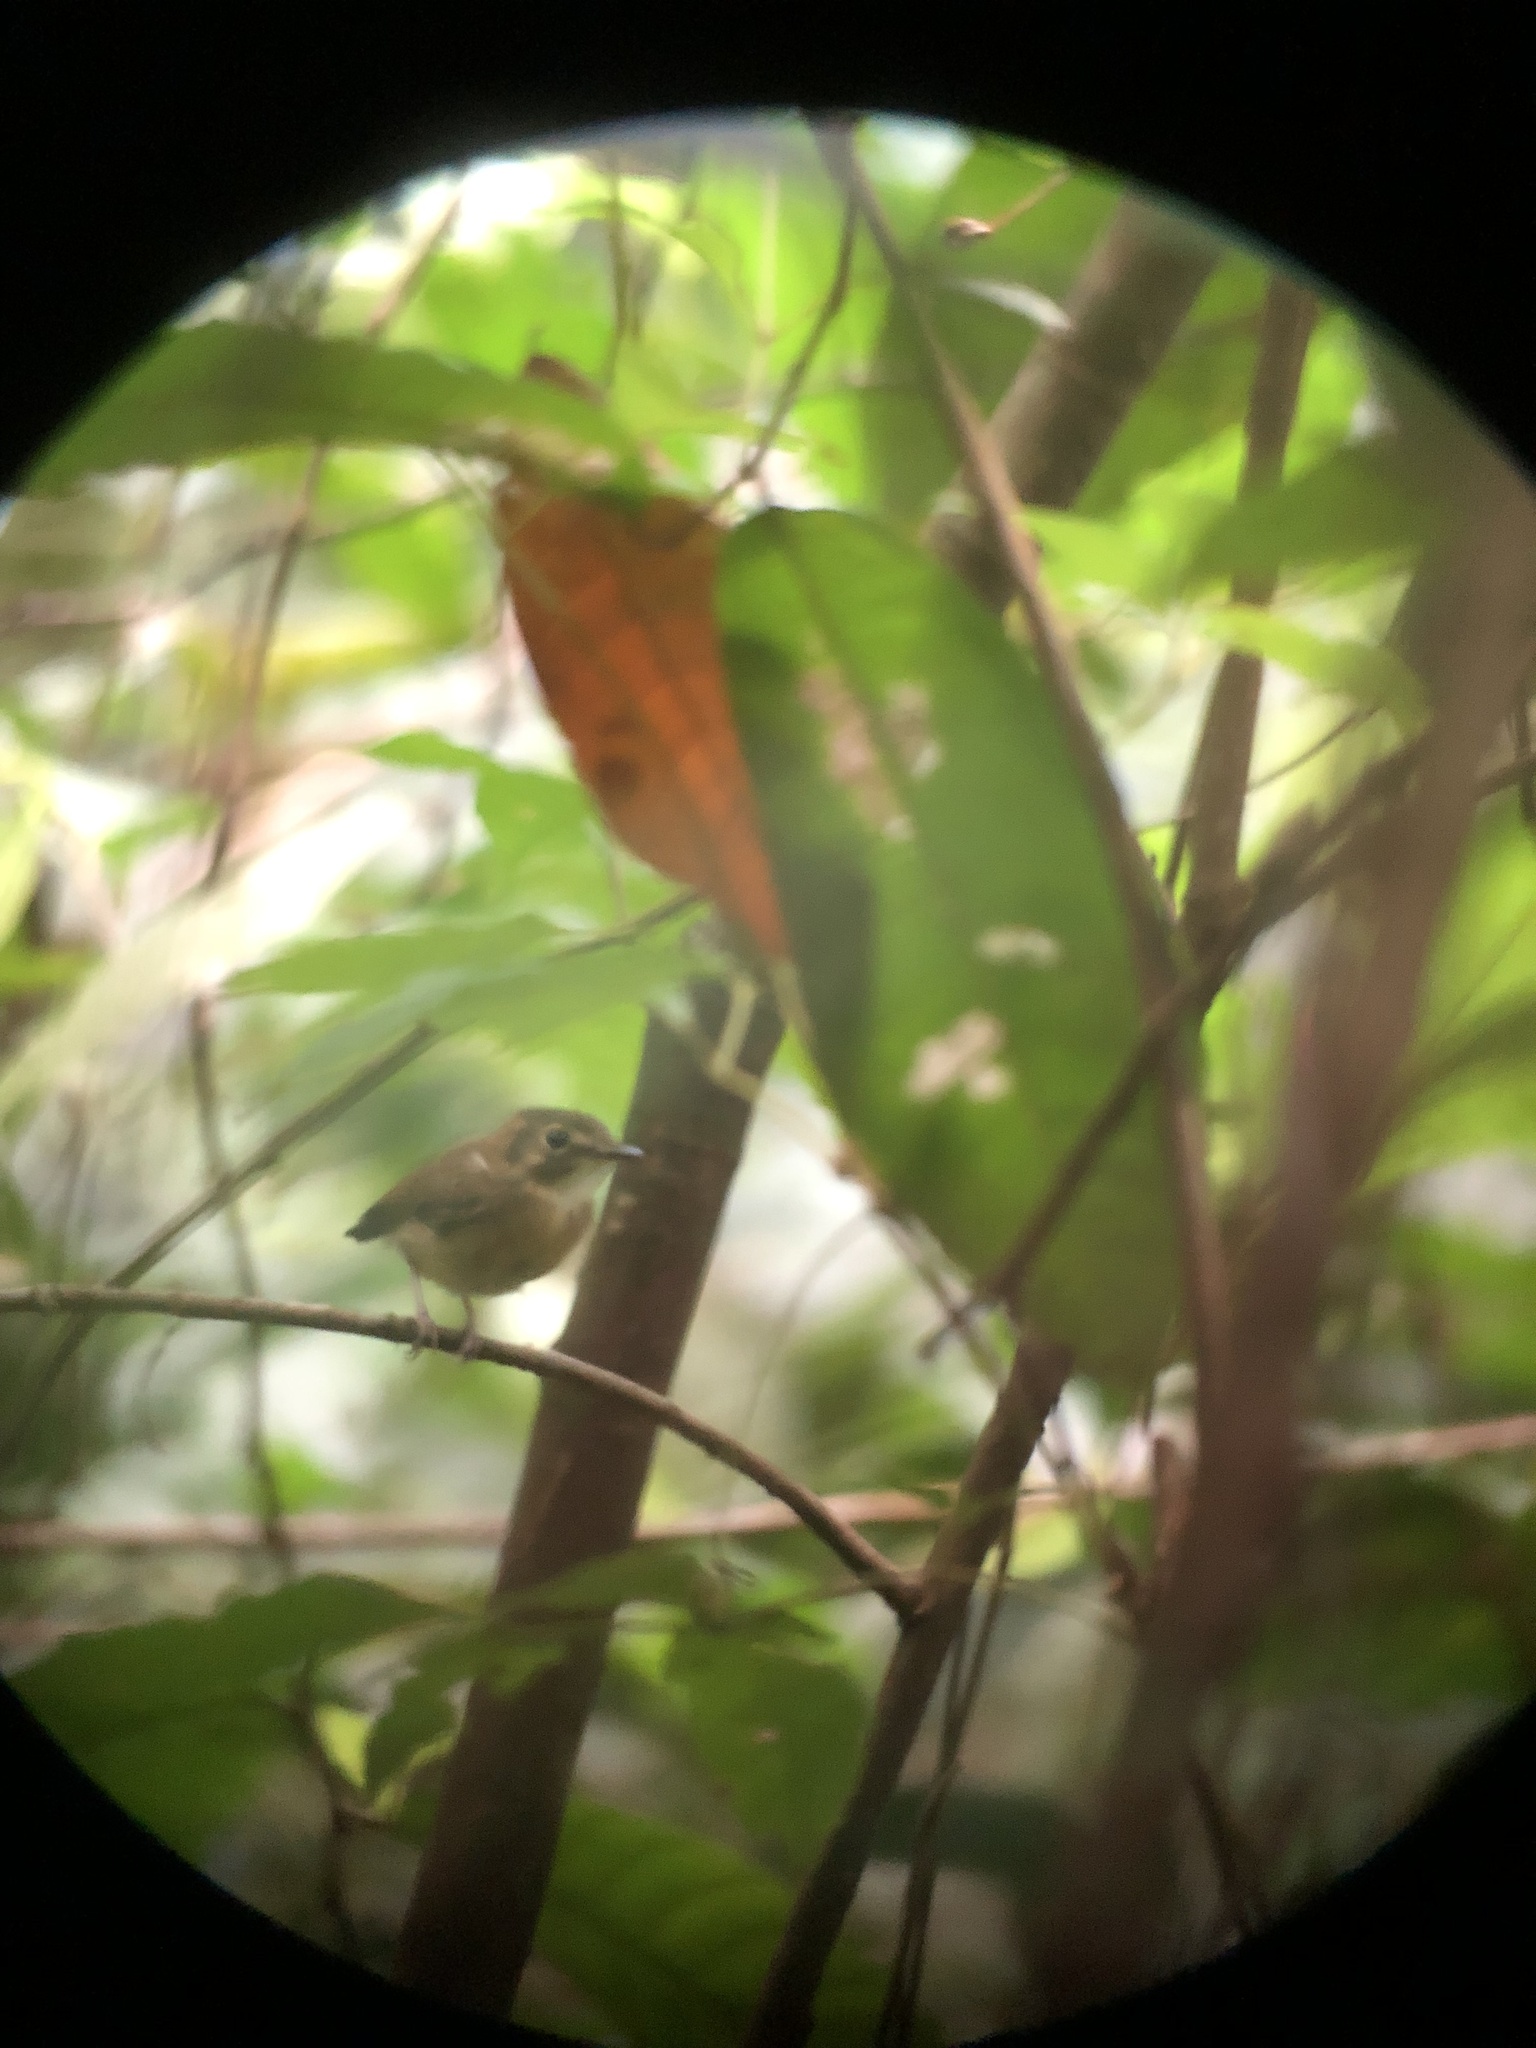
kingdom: Animalia
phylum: Chordata
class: Aves
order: Passeriformes
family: Tyrannidae
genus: Platyrinchus
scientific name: Platyrinchus cancrominus
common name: Stub-tailed spadebill
